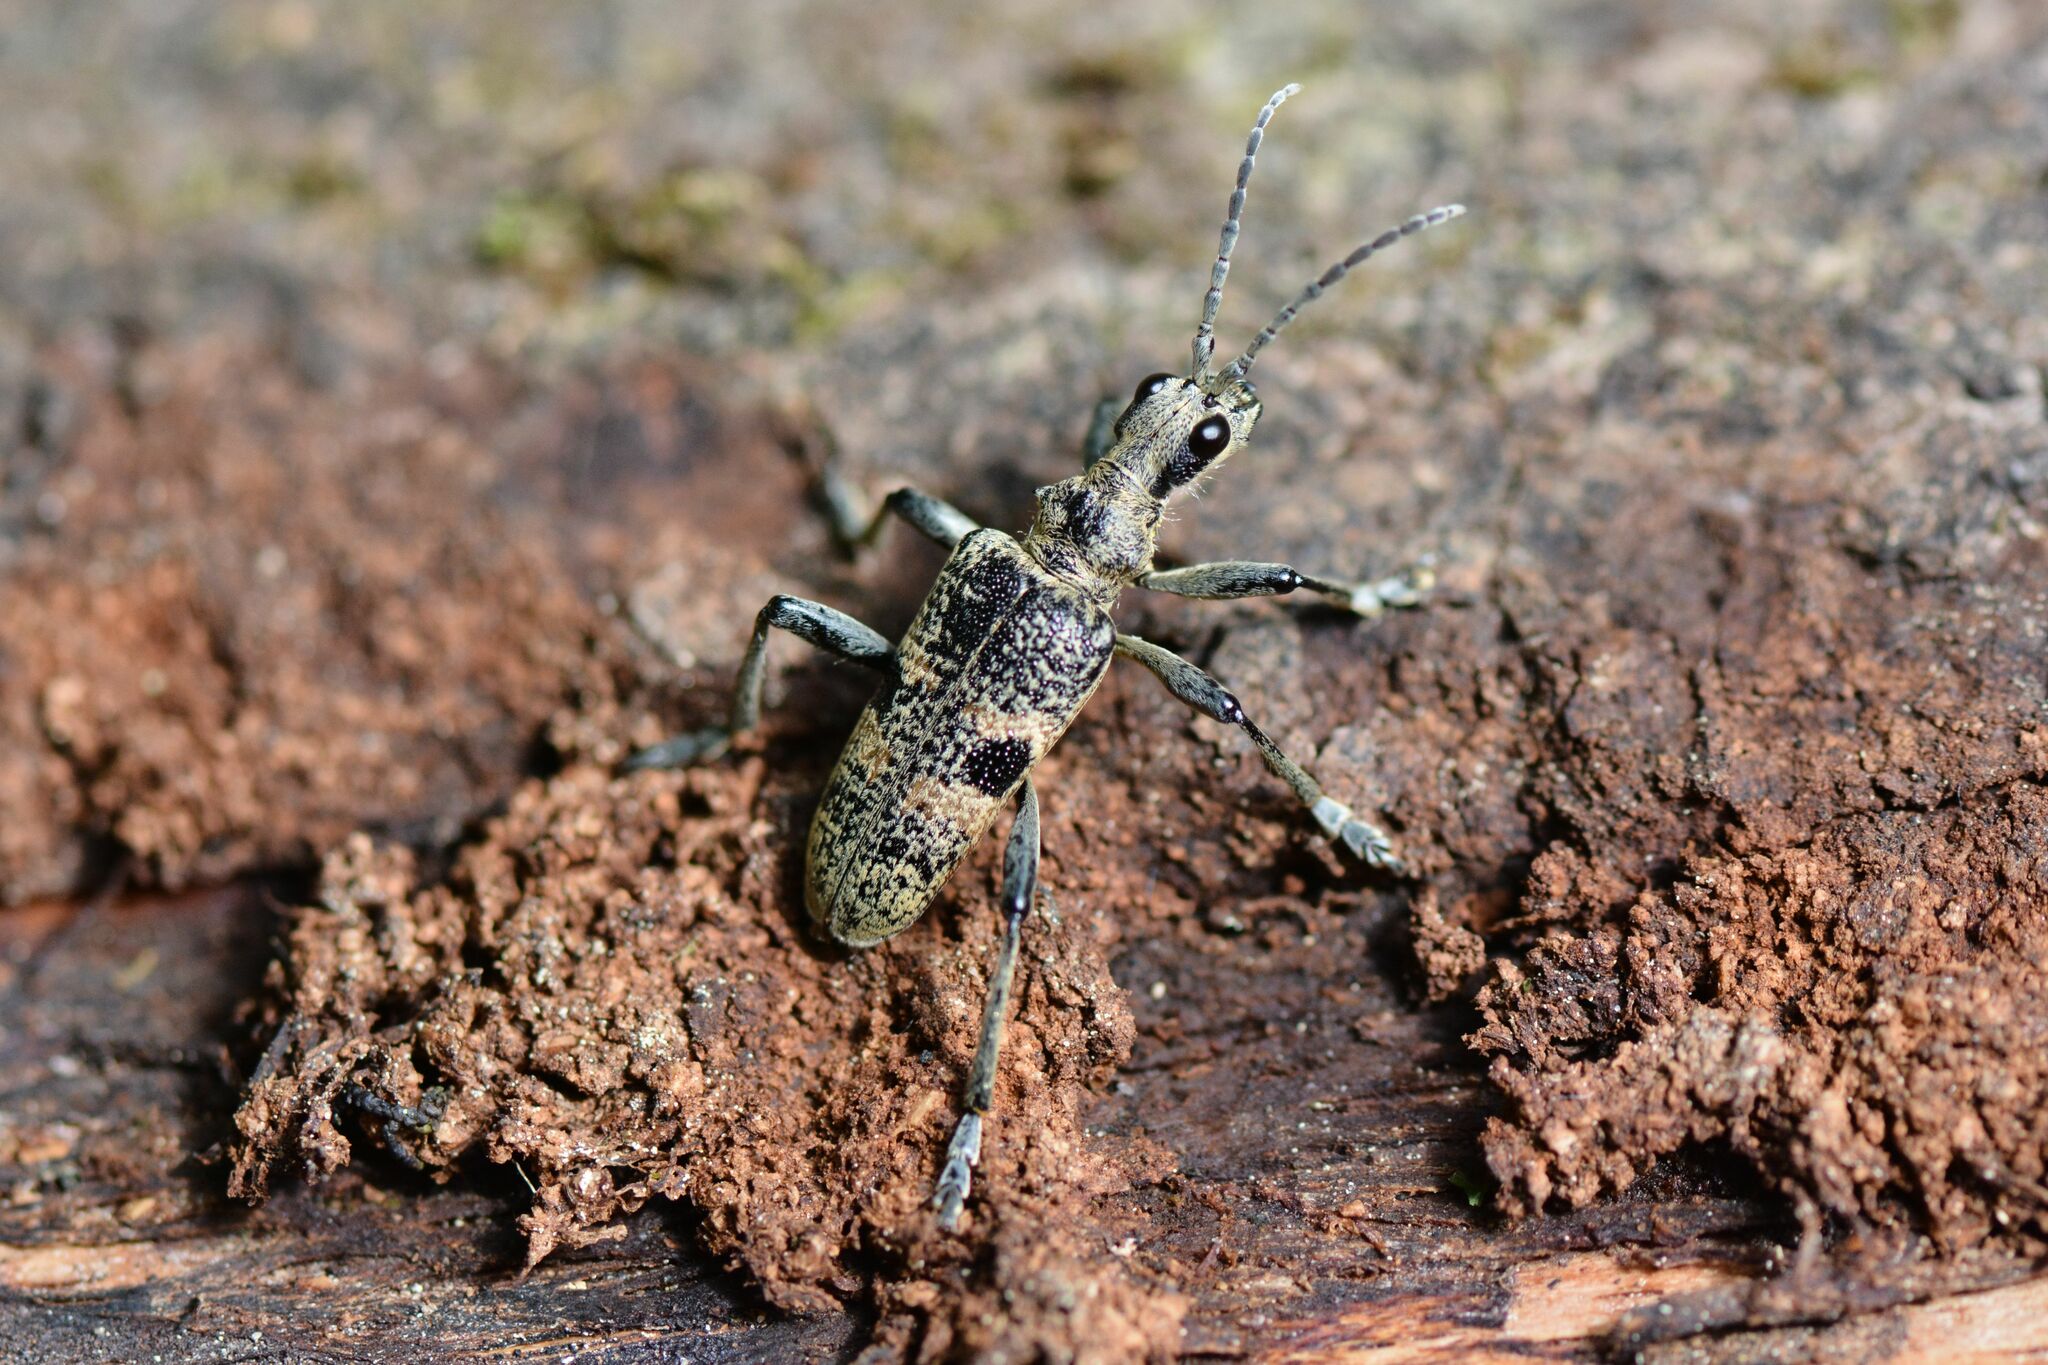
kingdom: Animalia
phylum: Arthropoda
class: Insecta
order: Coleoptera
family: Cerambycidae
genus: Rhagium
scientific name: Rhagium mordax
